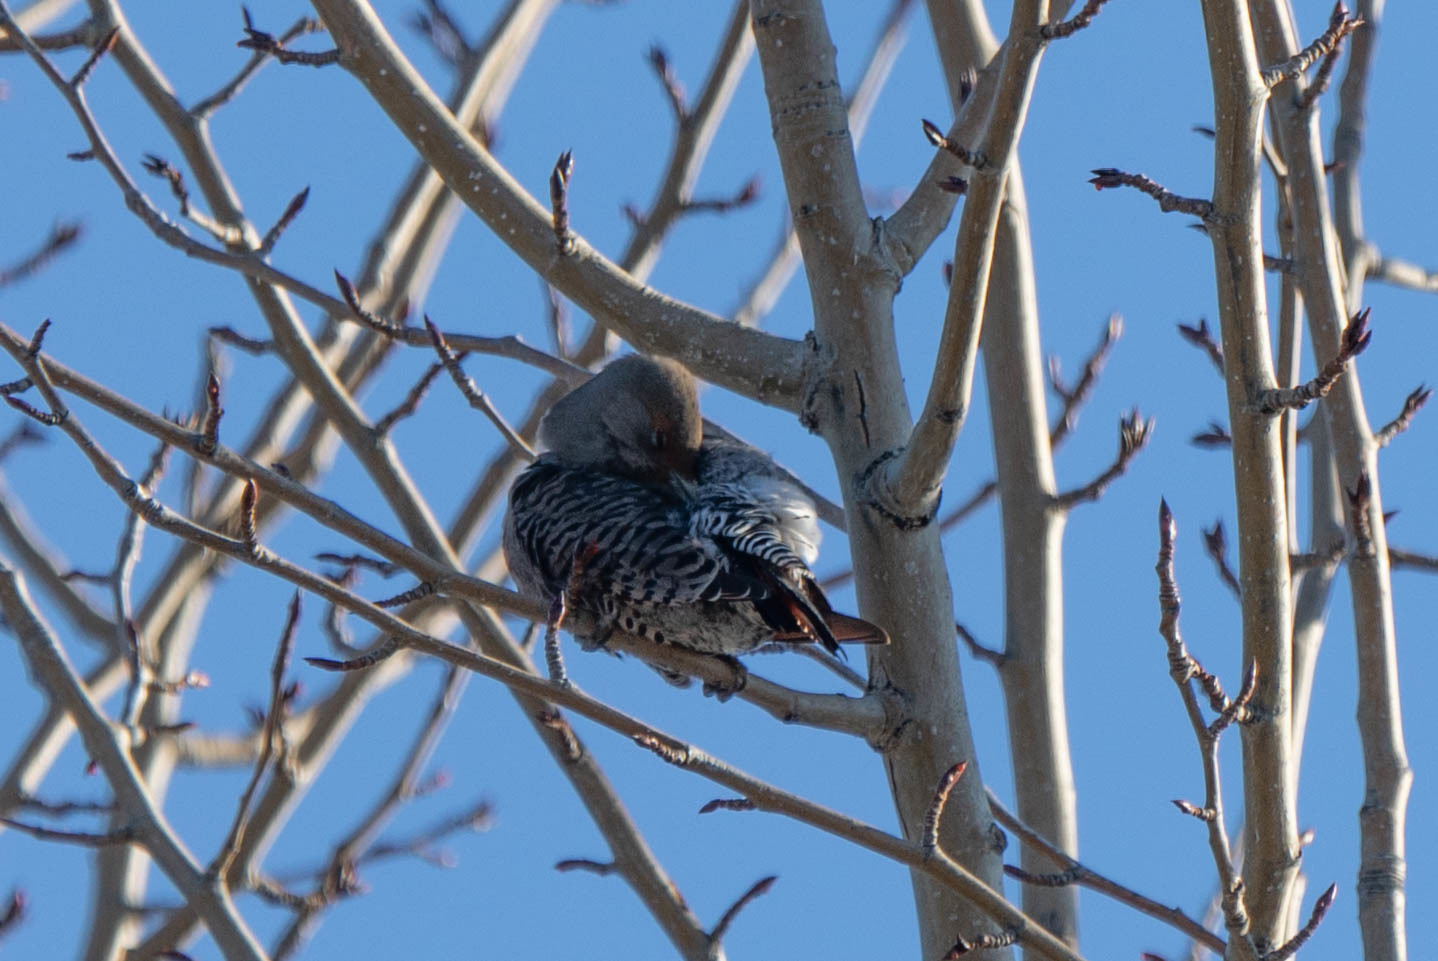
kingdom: Animalia
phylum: Chordata
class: Aves
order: Piciformes
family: Picidae
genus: Colaptes
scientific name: Colaptes auratus
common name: Northern flicker
